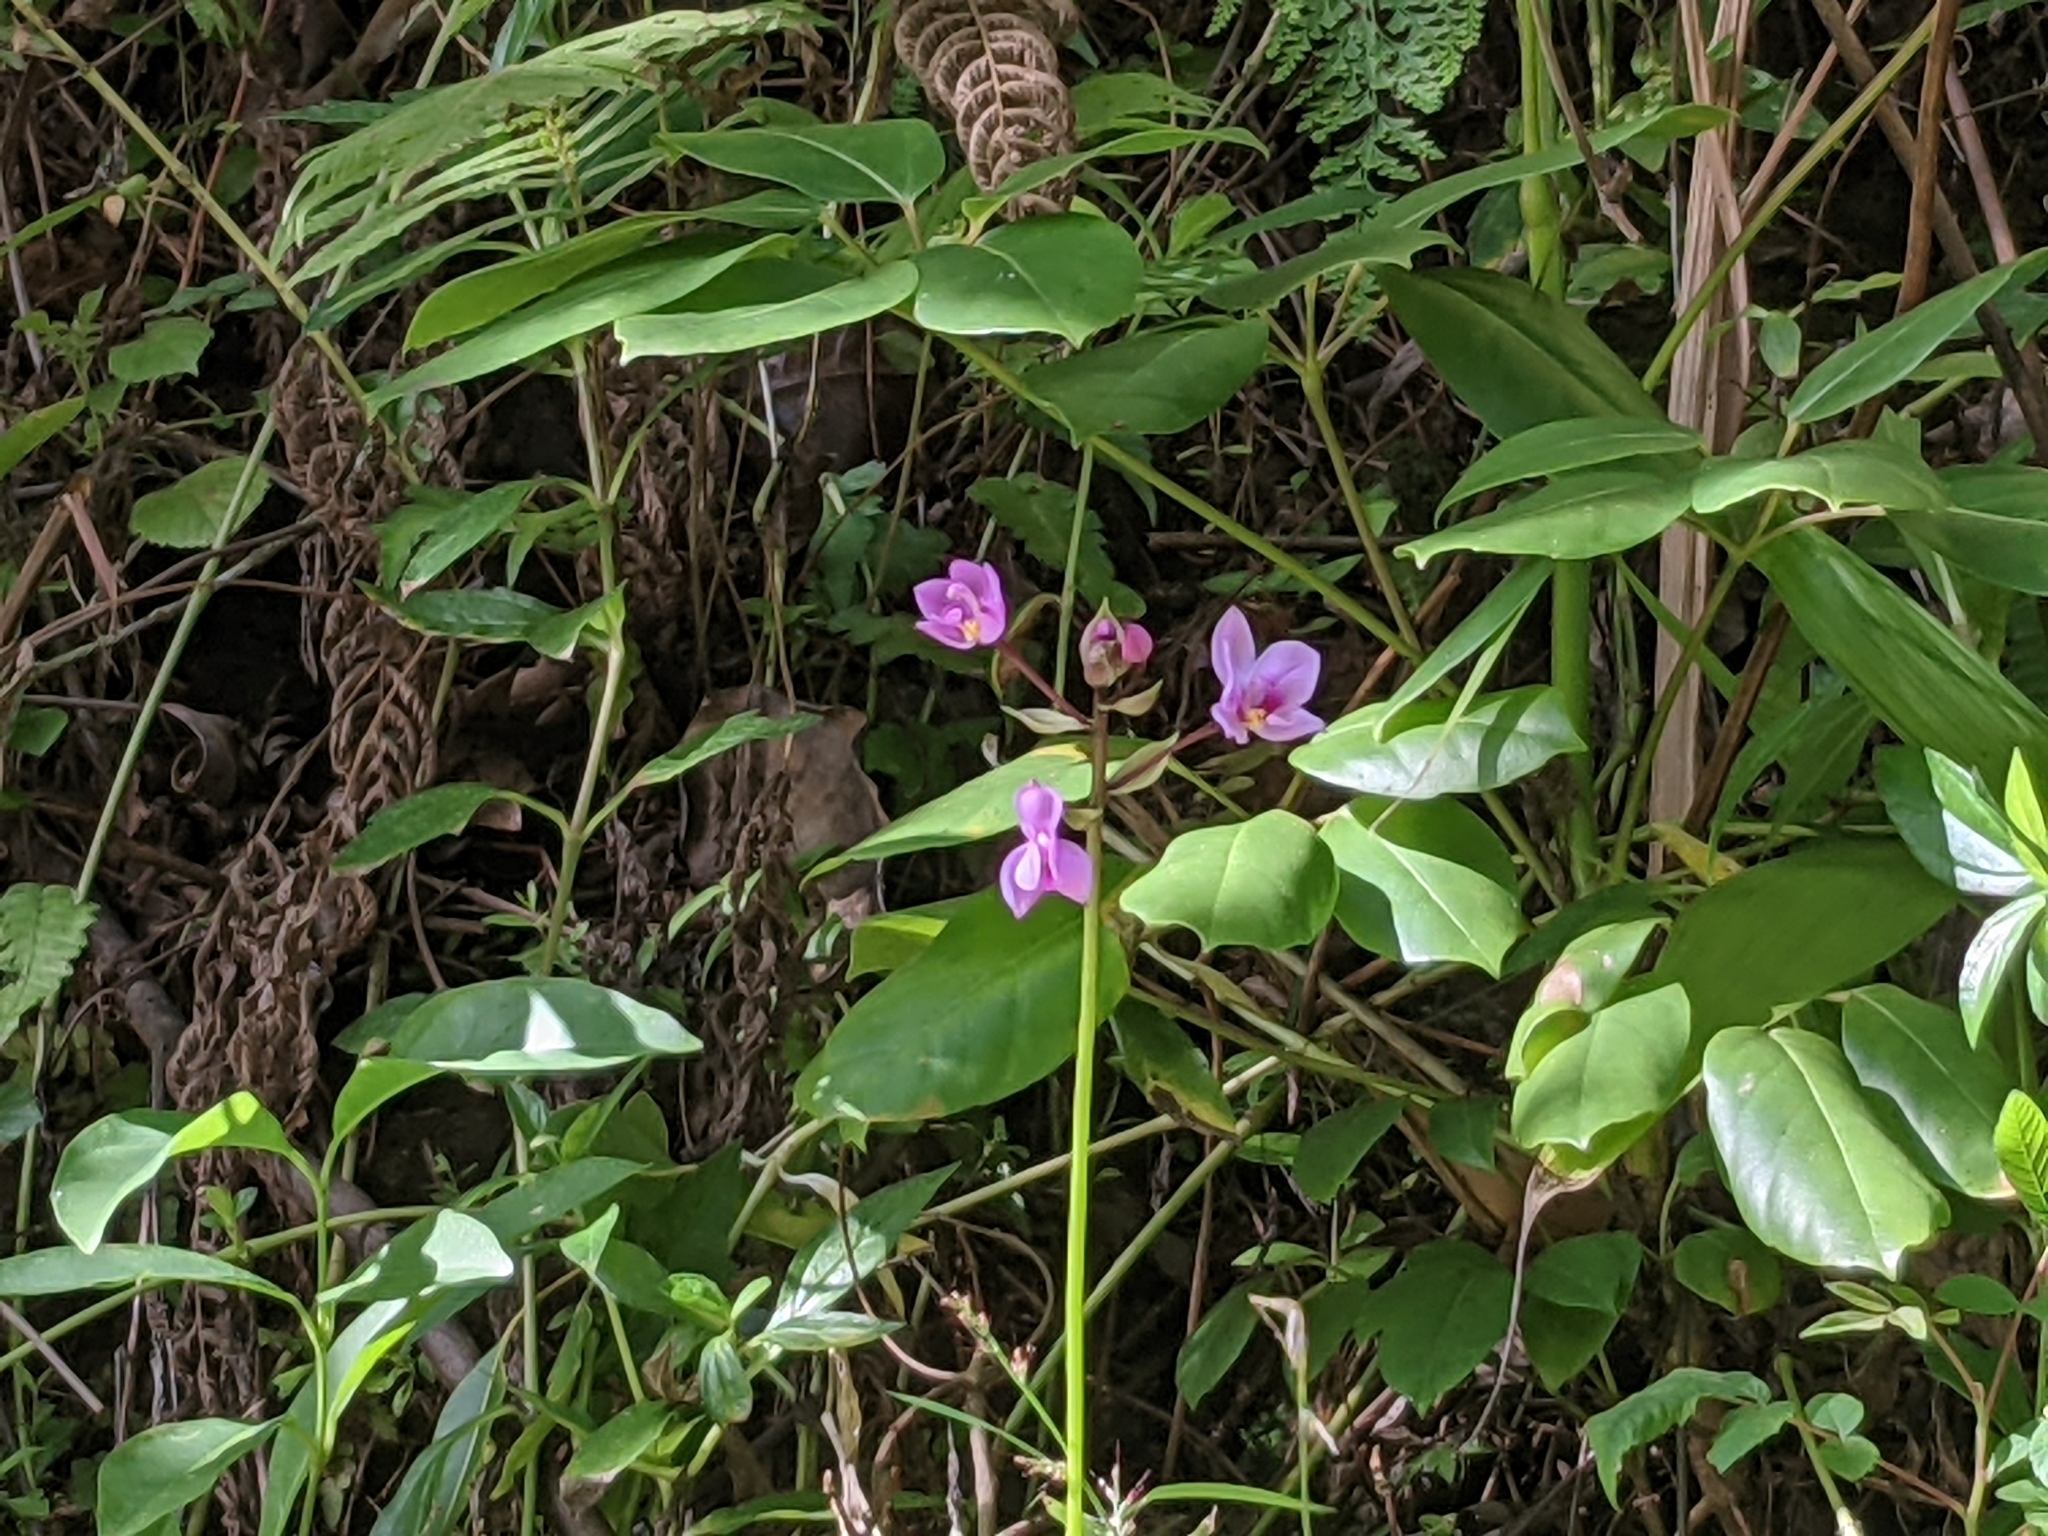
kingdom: Plantae
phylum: Tracheophyta
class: Liliopsida
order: Asparagales
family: Orchidaceae
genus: Spathoglottis
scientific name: Spathoglottis plicata
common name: Philippine ground orchid
